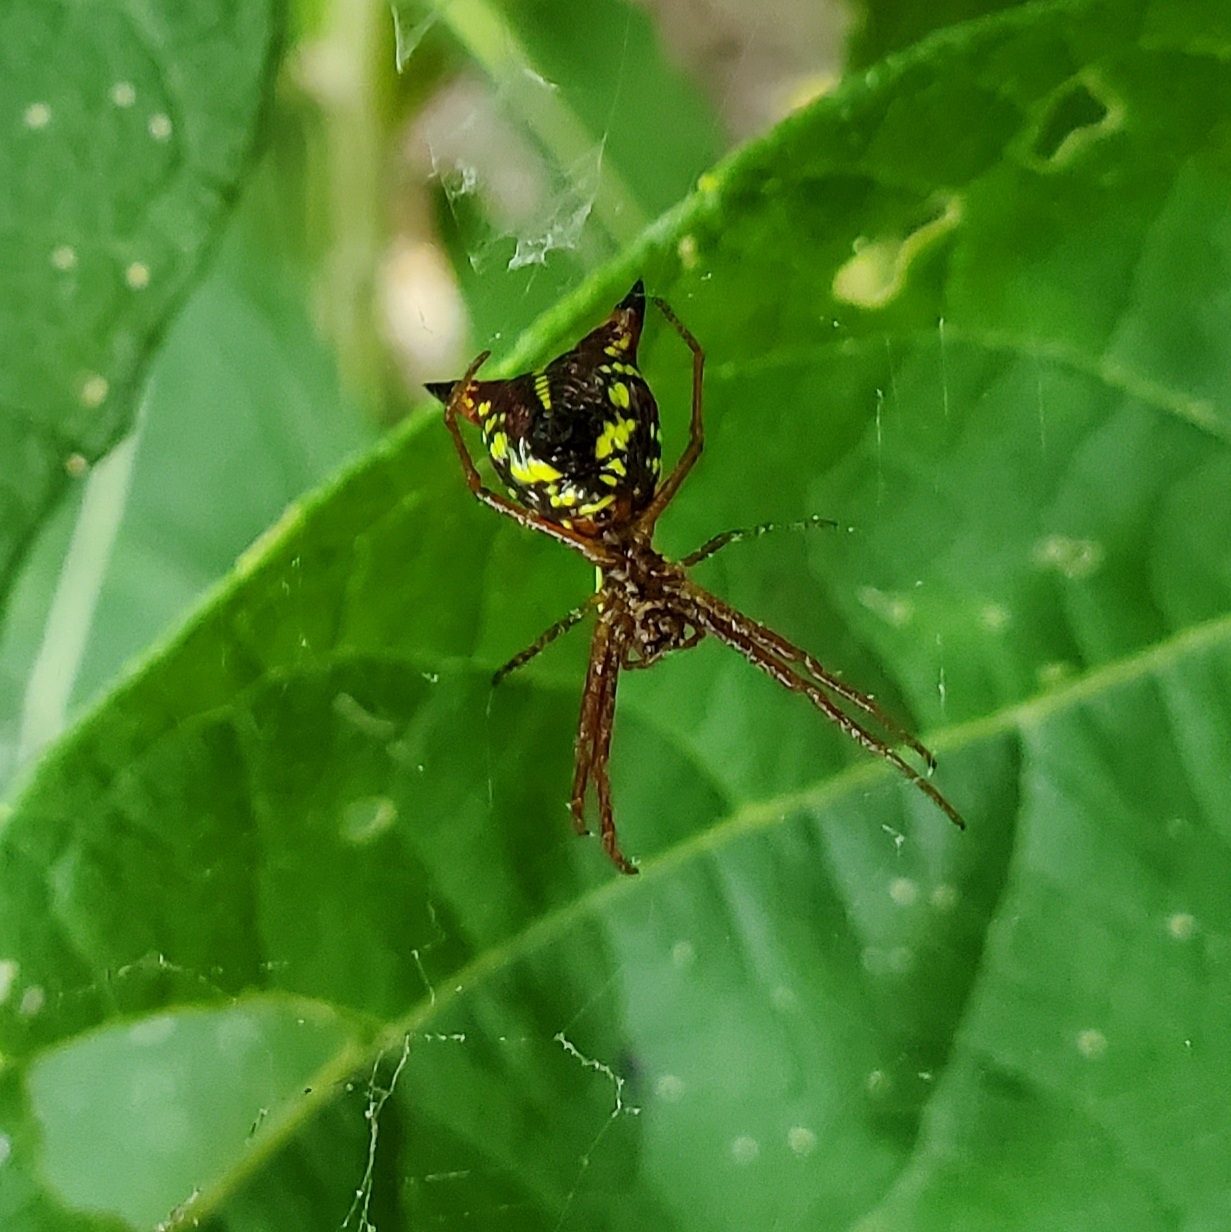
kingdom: Animalia
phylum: Arthropoda
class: Arachnida
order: Araneae
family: Araneidae
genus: Micrathena
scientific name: Micrathena sagittata
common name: Orb weavers
